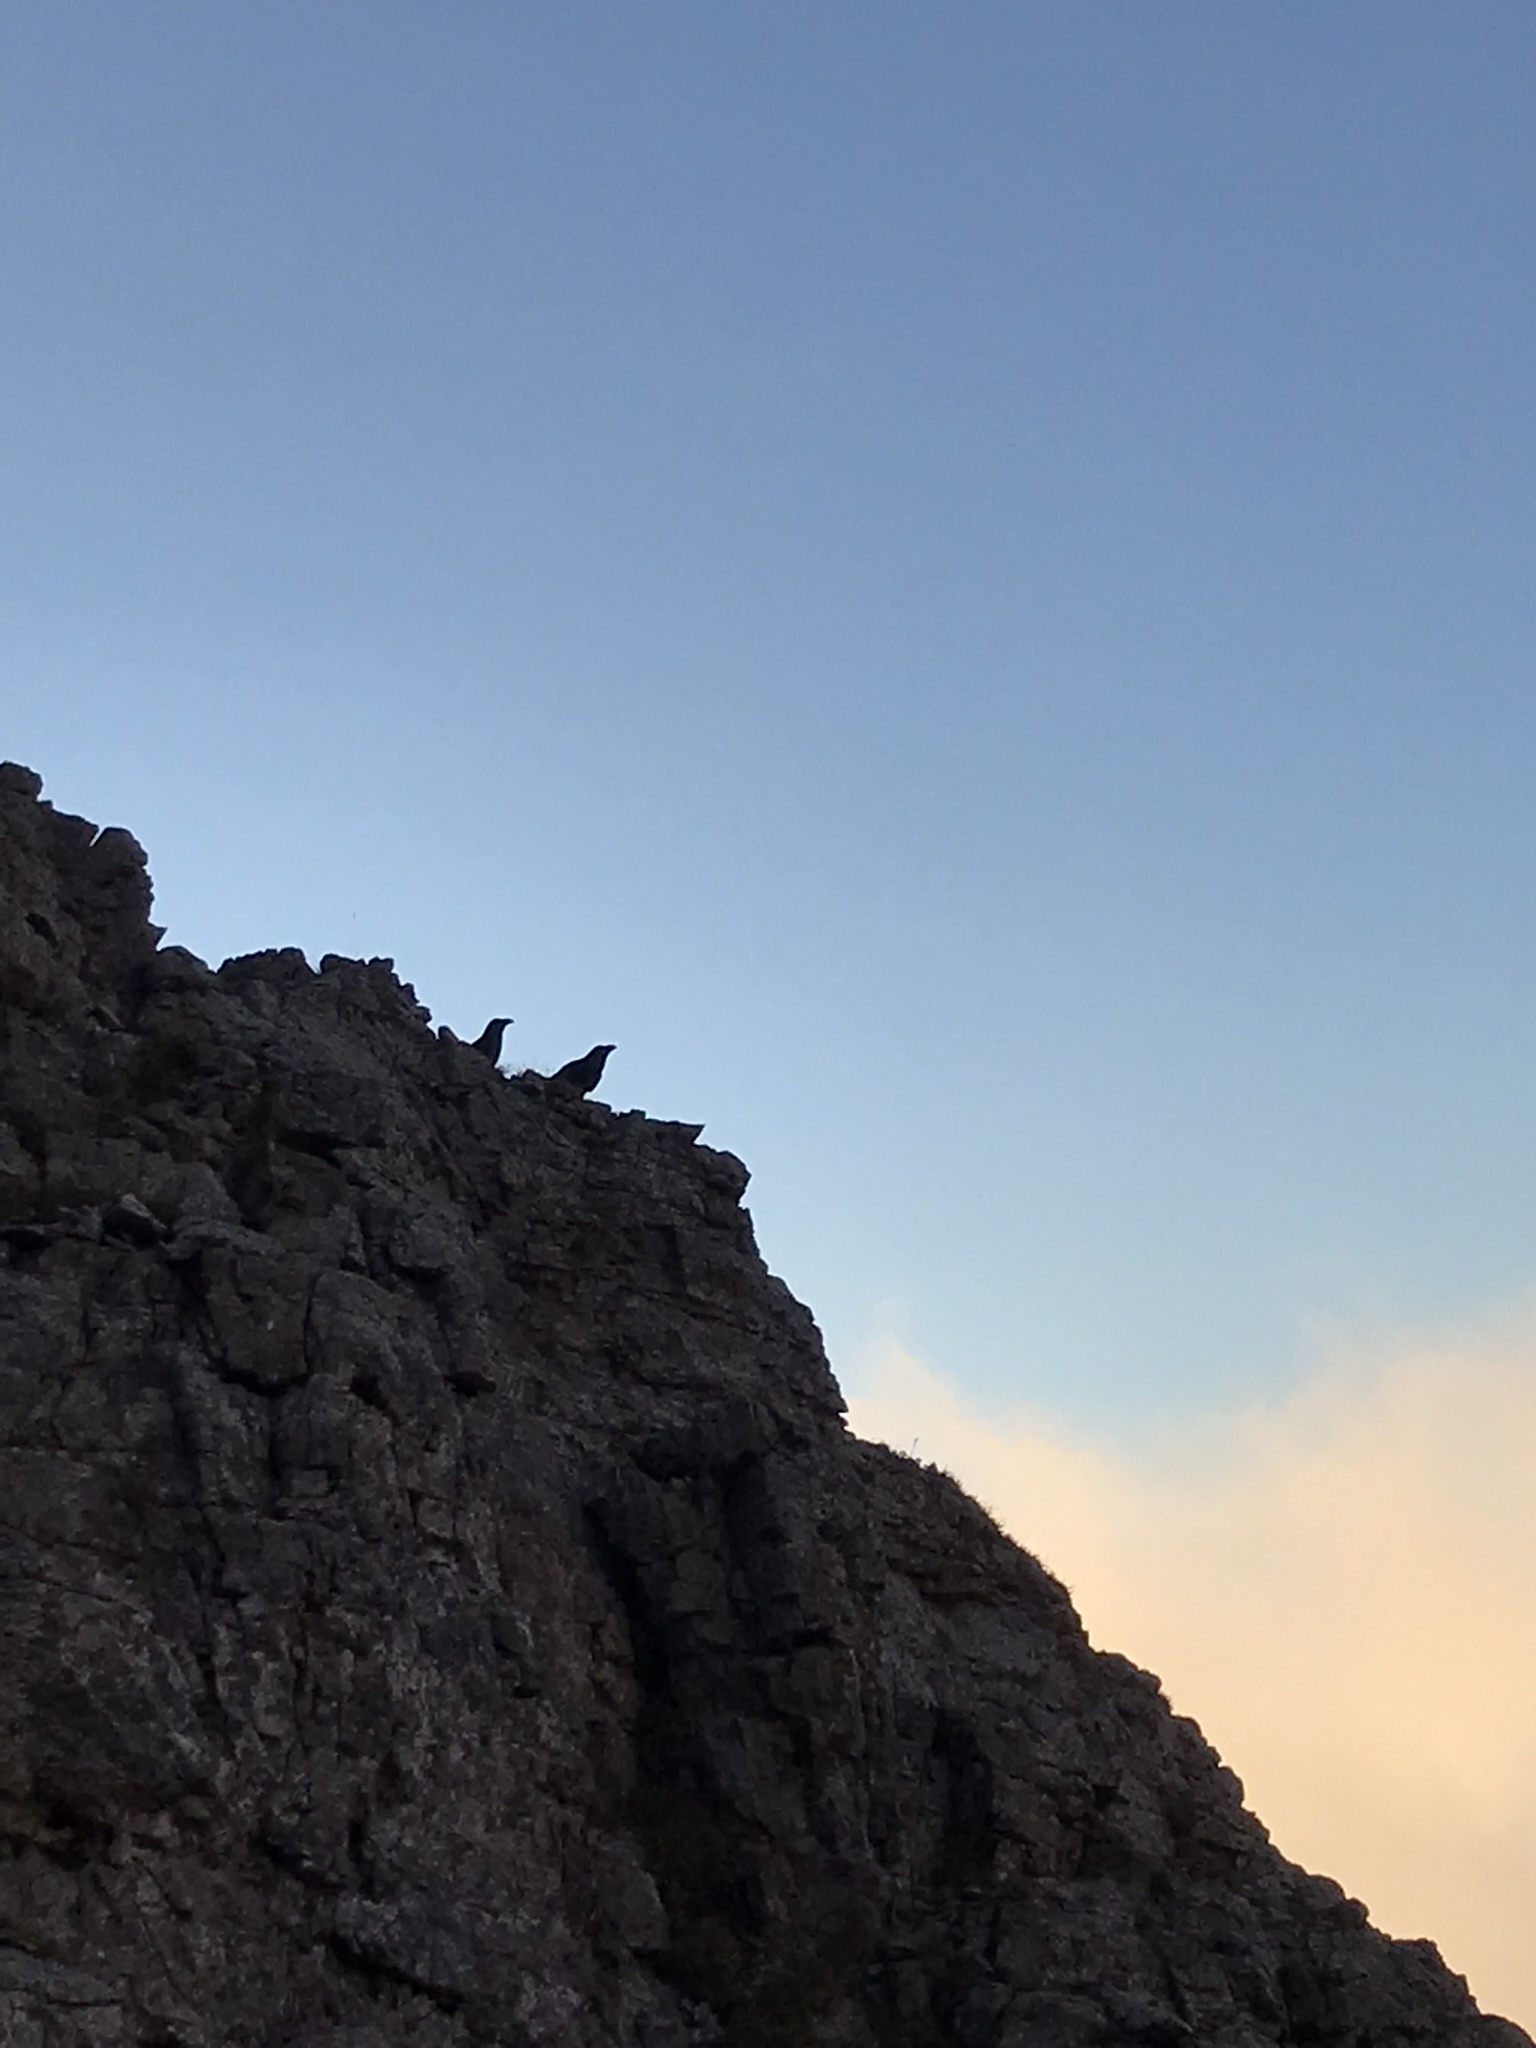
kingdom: Animalia
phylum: Chordata
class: Aves
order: Passeriformes
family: Corvidae
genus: Corvus
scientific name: Corvus corax
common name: Common raven
